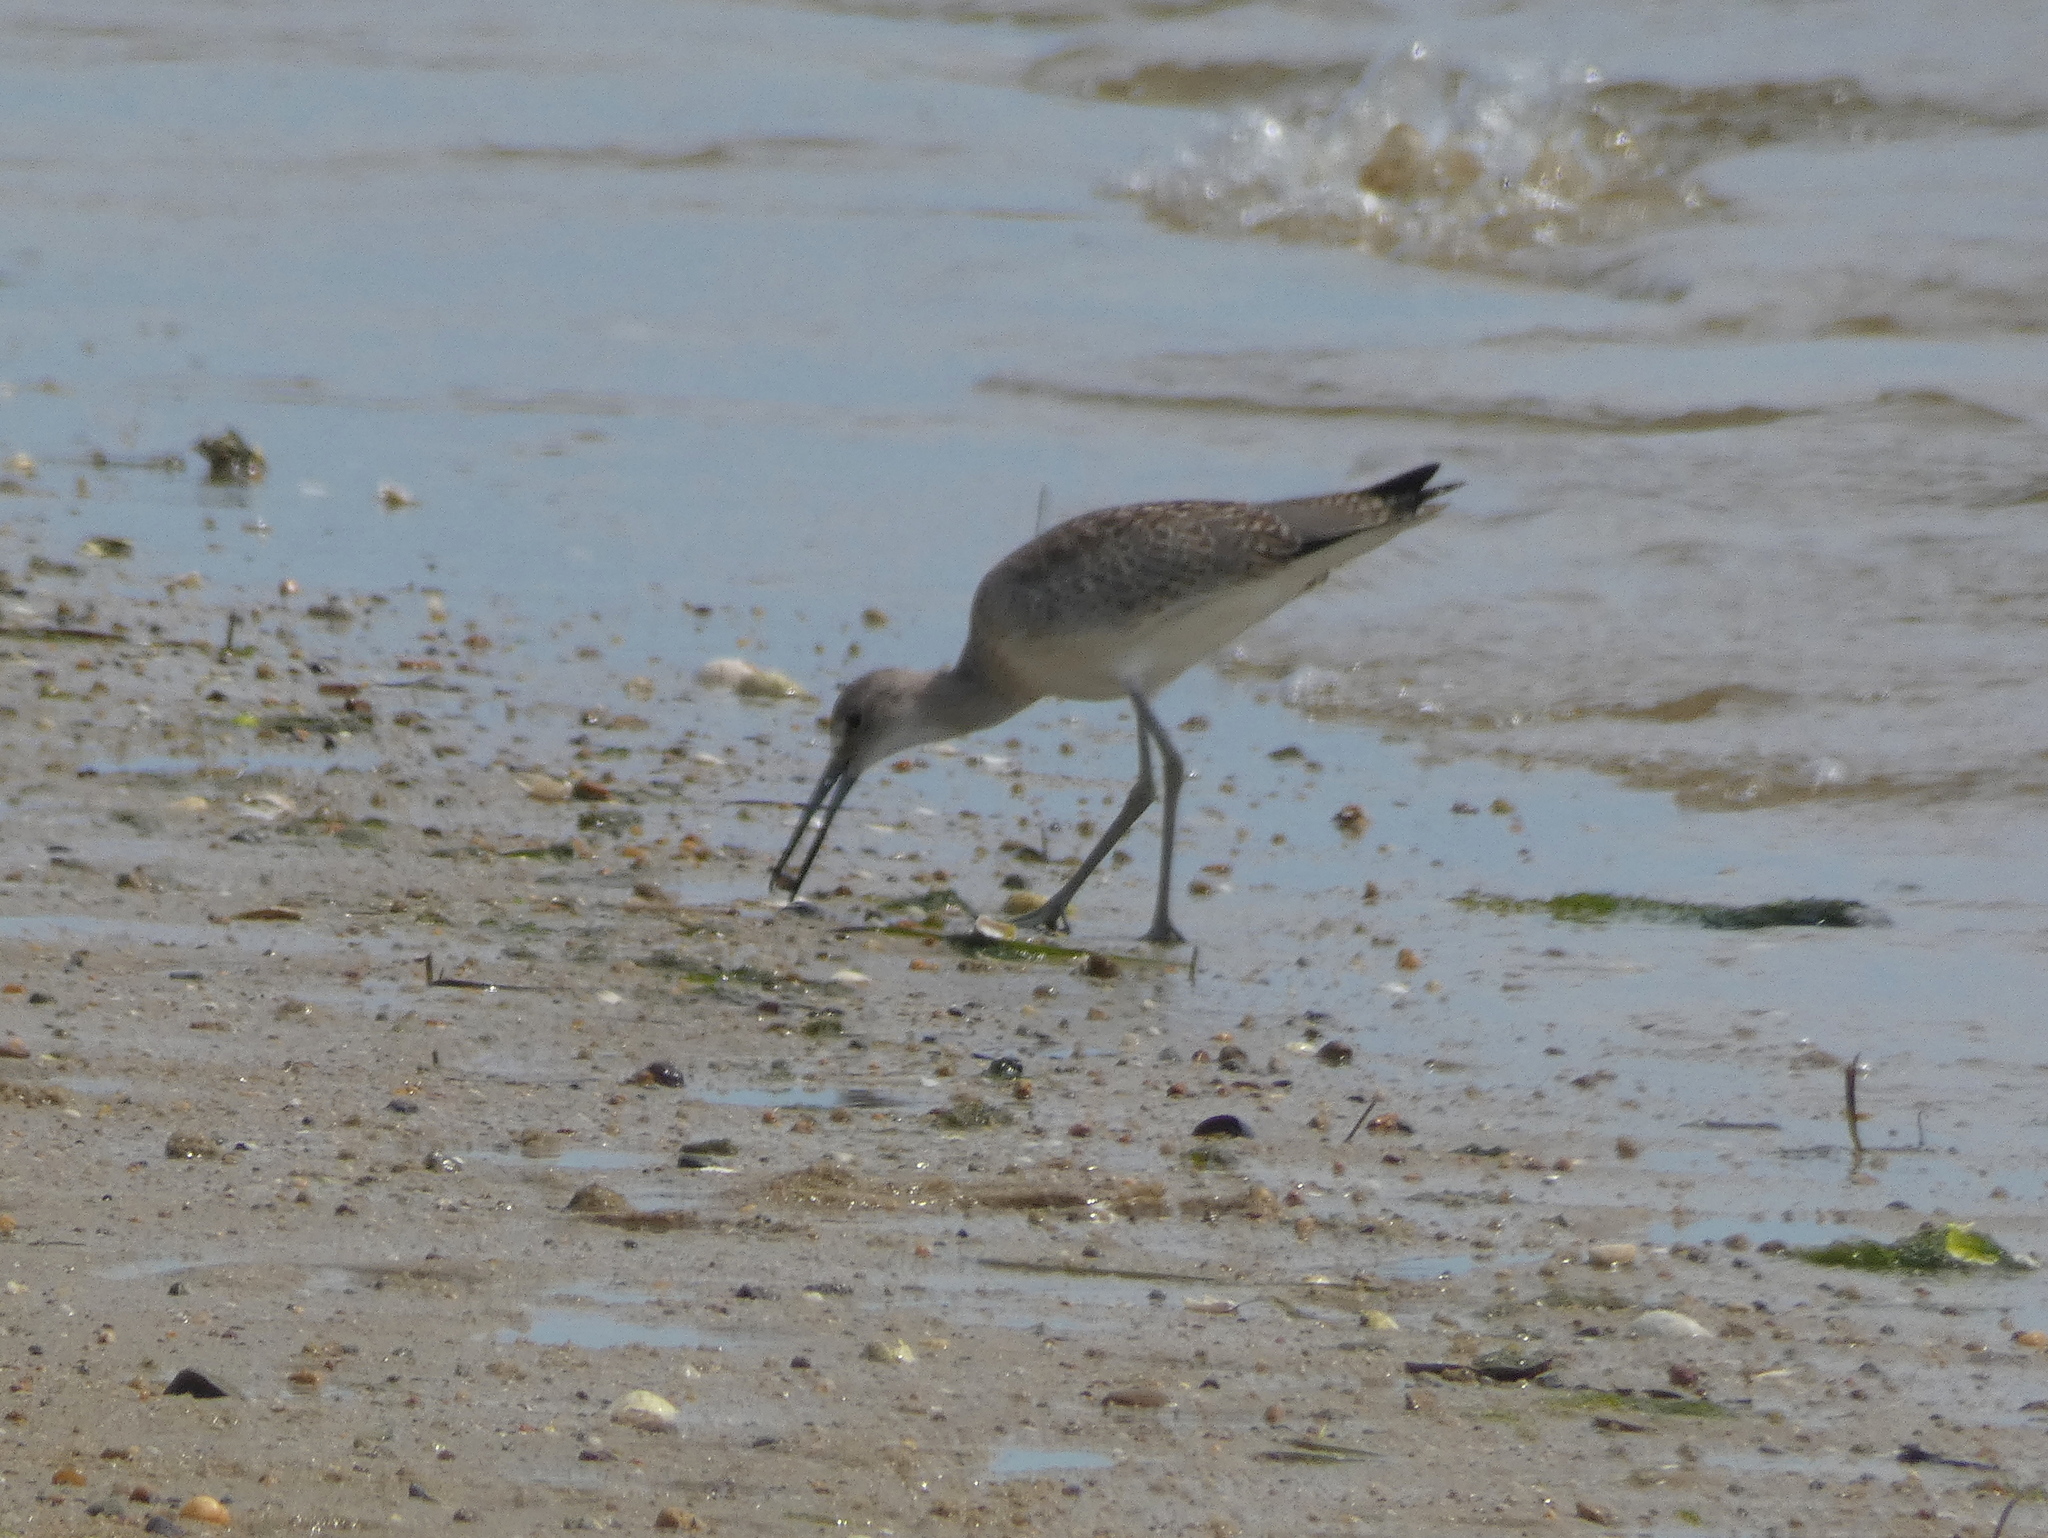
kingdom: Animalia
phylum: Chordata
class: Aves
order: Charadriiformes
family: Scolopacidae
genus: Tringa
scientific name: Tringa semipalmata
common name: Willet
